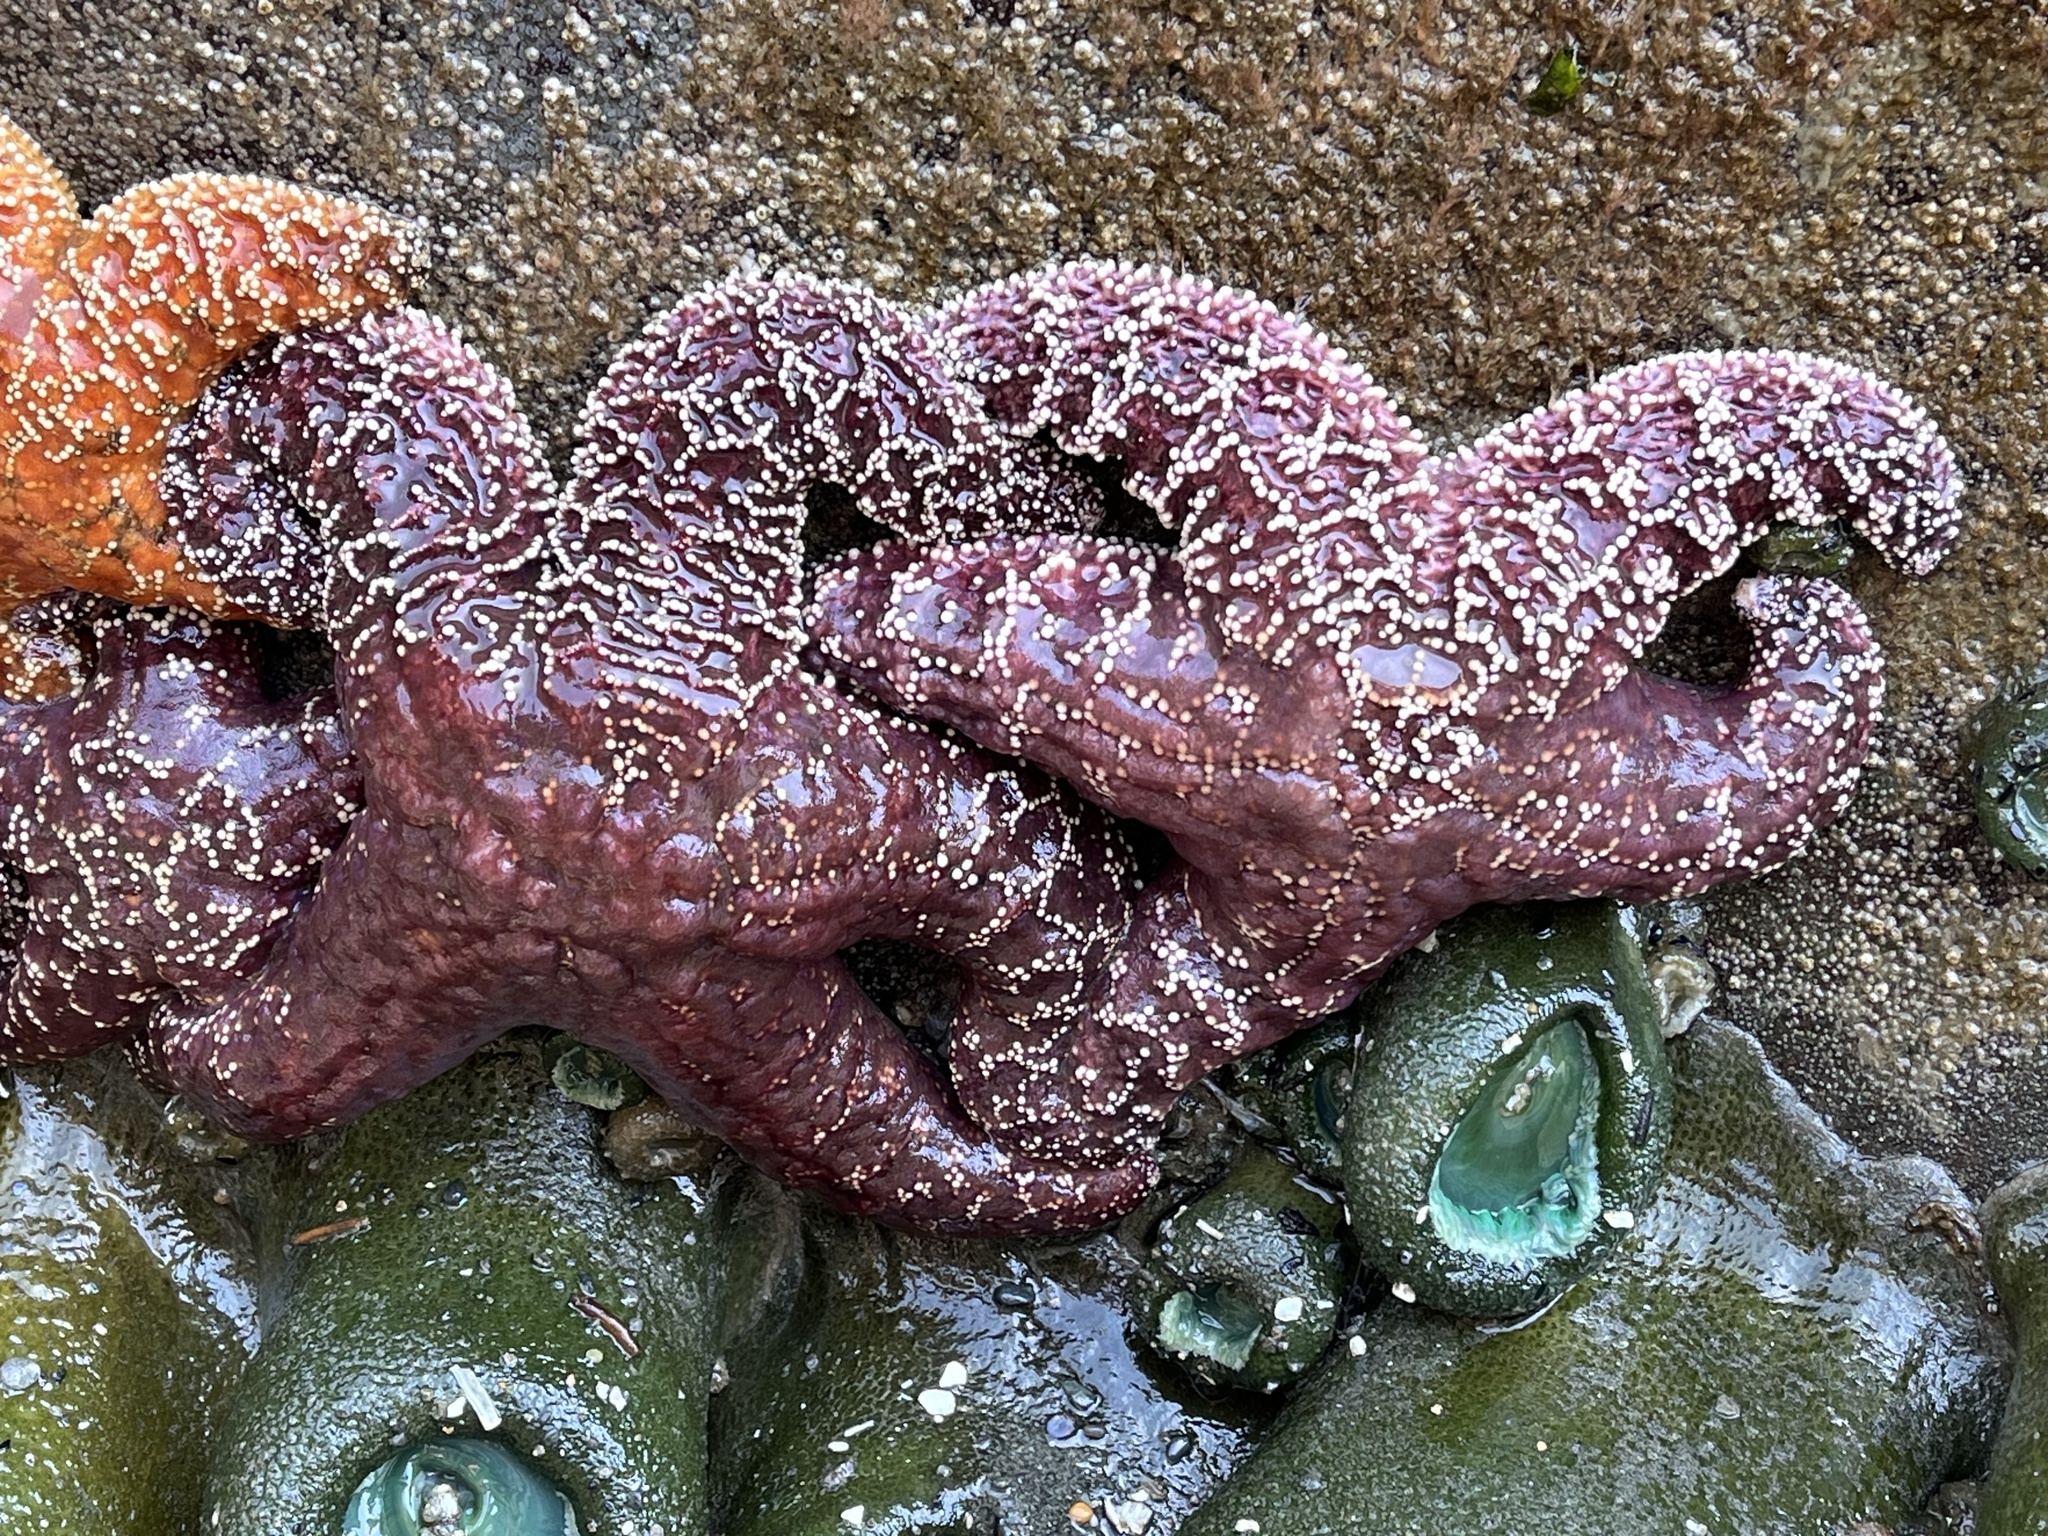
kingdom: Animalia
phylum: Echinodermata
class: Asteroidea
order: Forcipulatida
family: Asteriidae
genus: Pisaster
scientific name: Pisaster ochraceus
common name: Ochre stars
